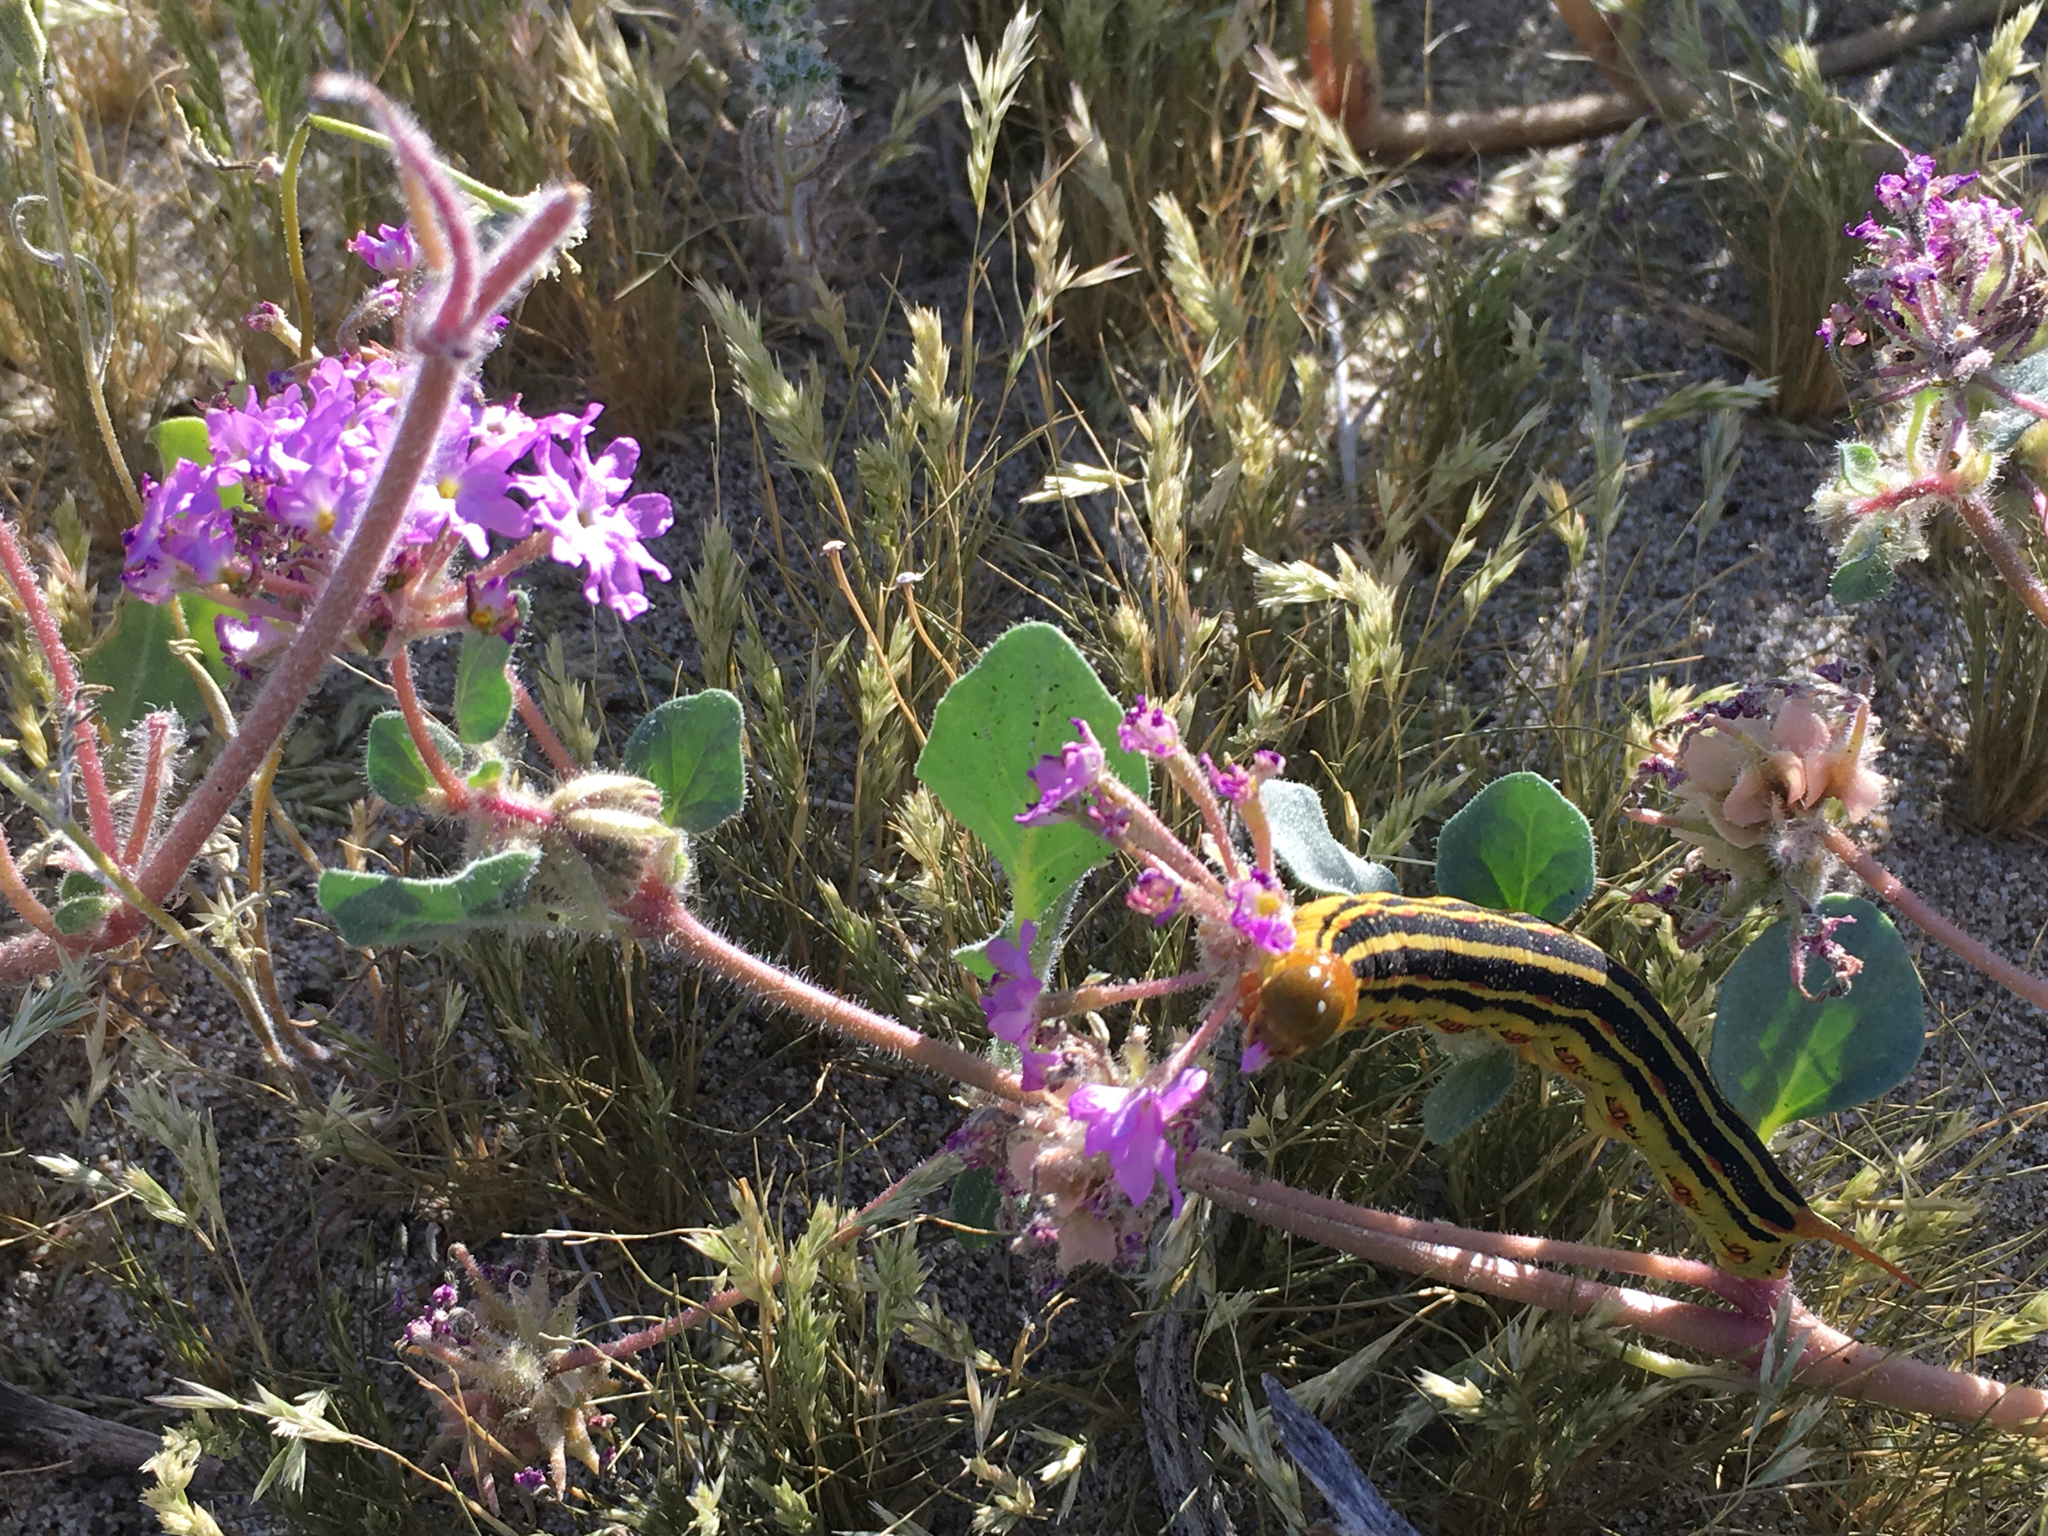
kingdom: Plantae
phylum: Tracheophyta
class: Magnoliopsida
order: Caryophyllales
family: Nyctaginaceae
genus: Abronia
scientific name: Abronia villosa
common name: Desert sand-verbena
